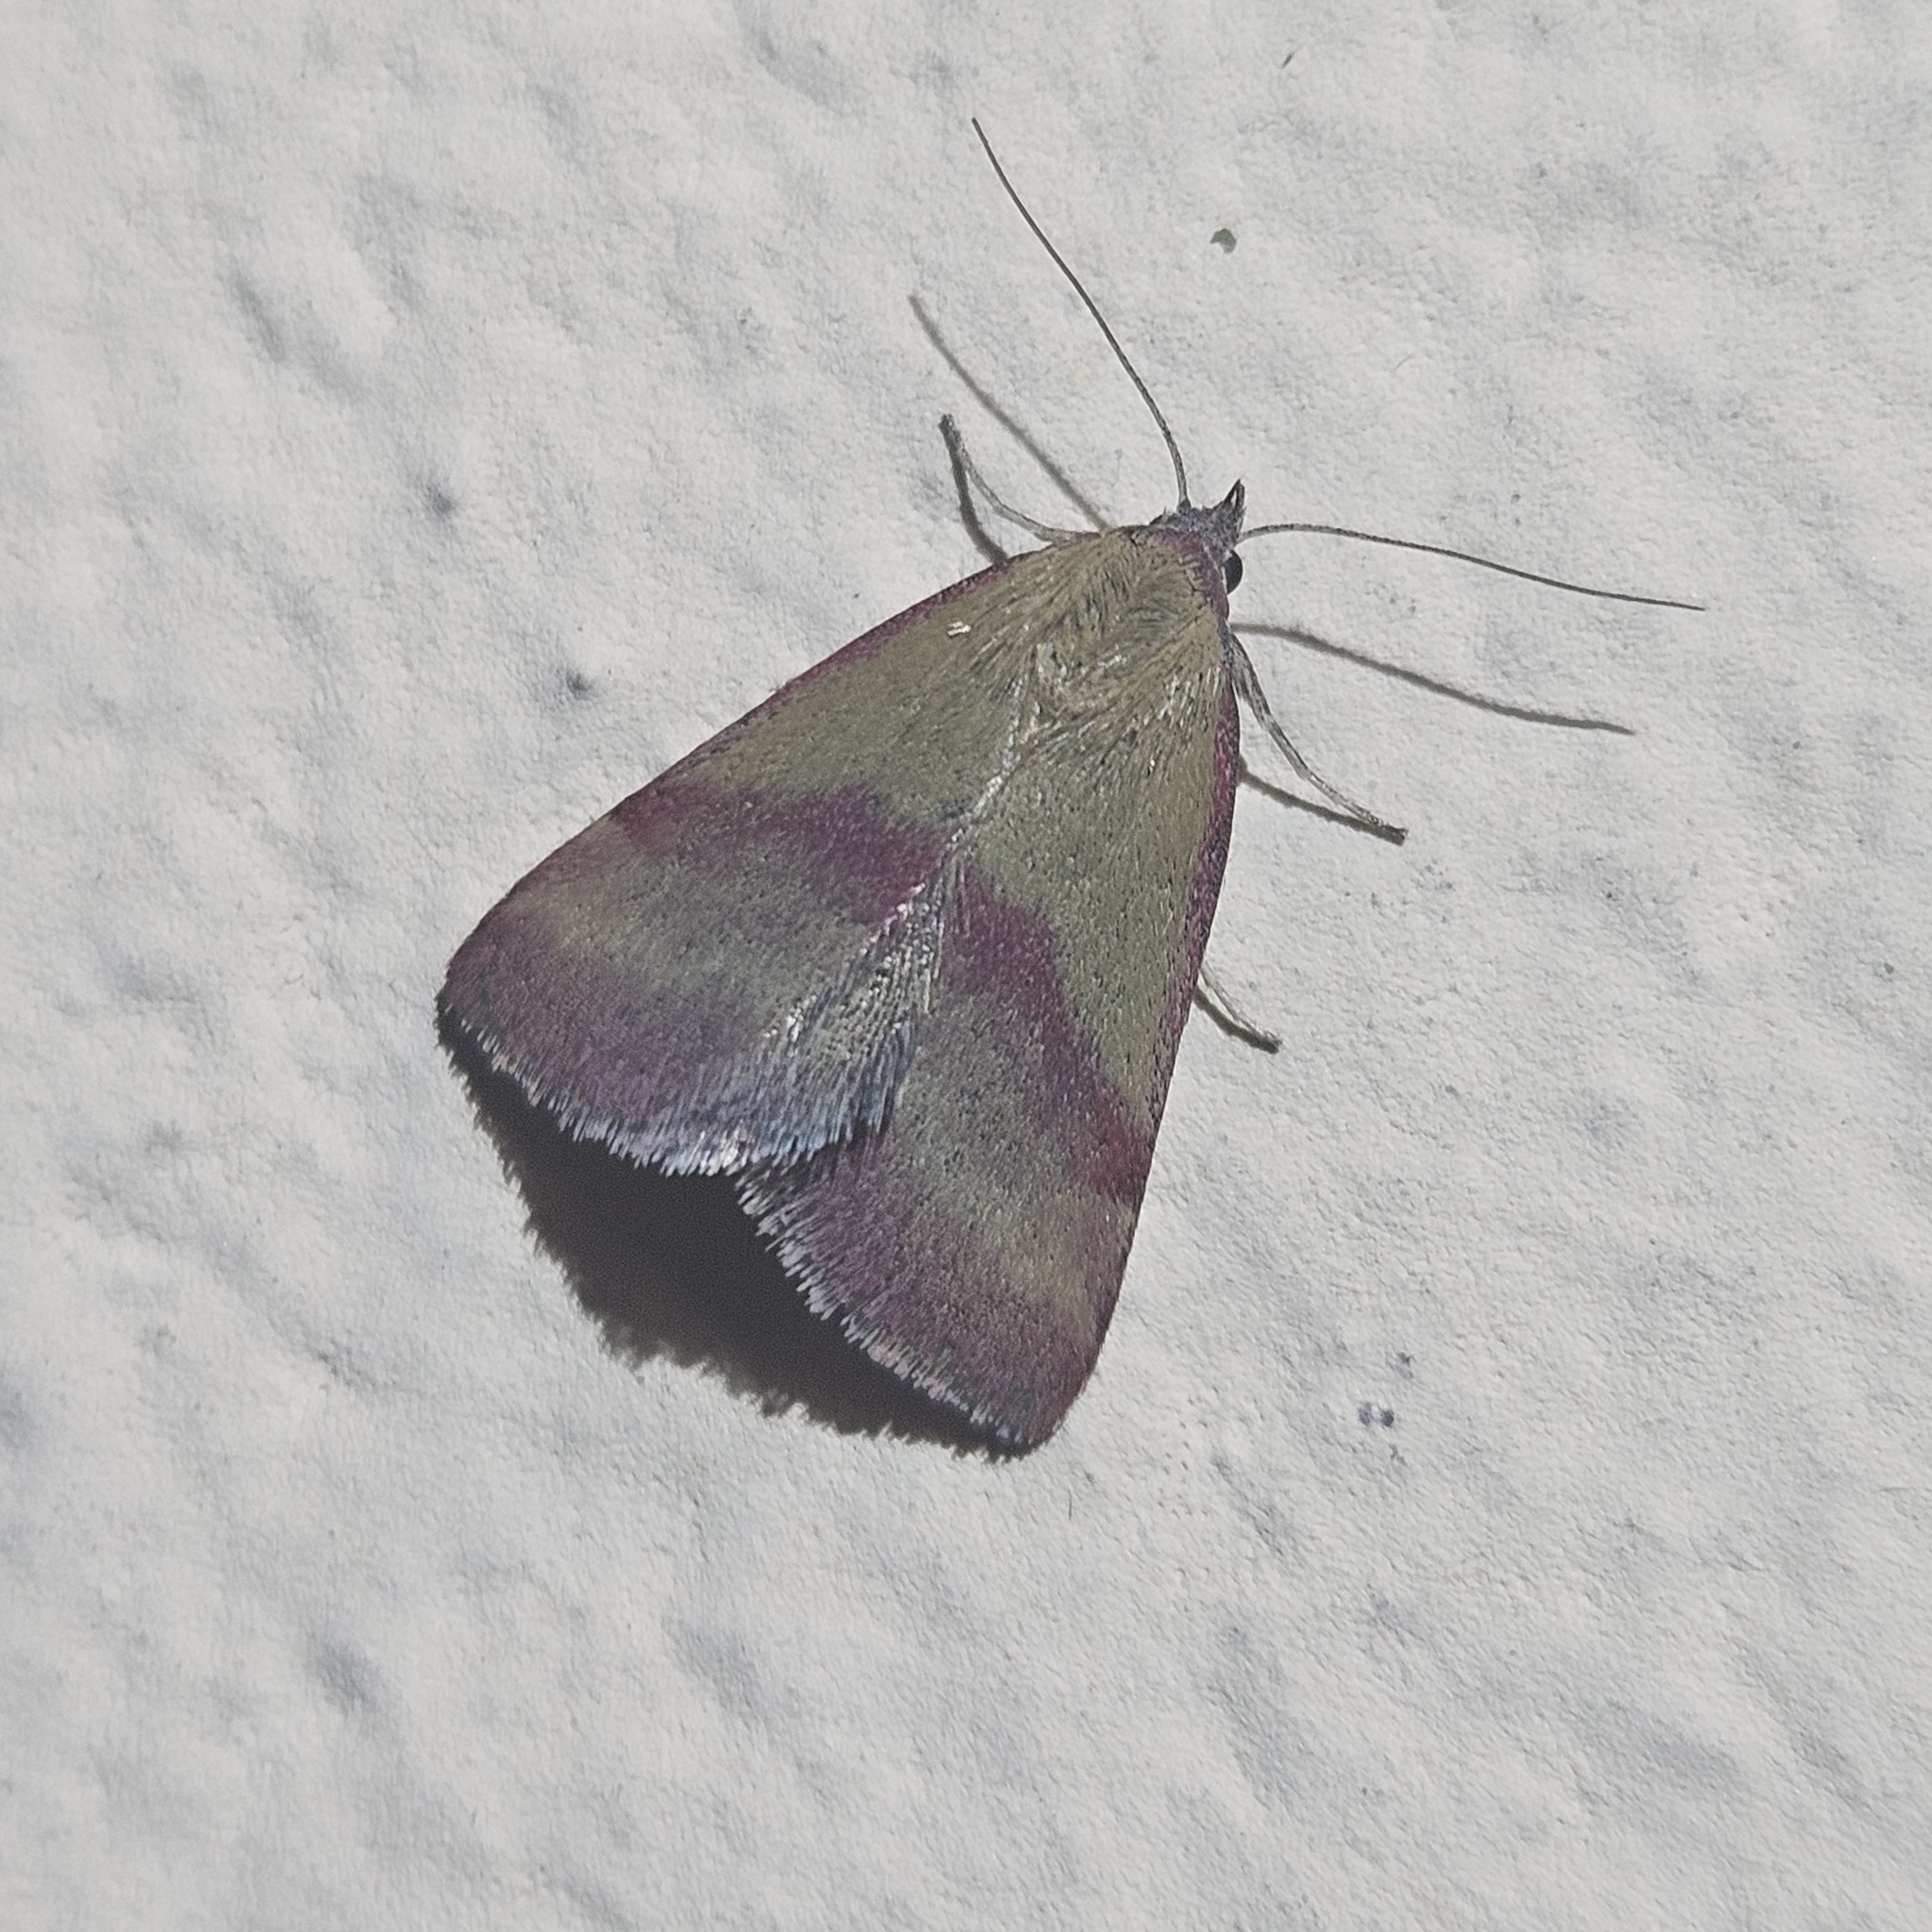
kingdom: Animalia
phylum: Arthropoda
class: Insecta
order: Lepidoptera
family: Erebidae
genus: Phytometra
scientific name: Phytometra viridaria
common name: Small purple-barred
